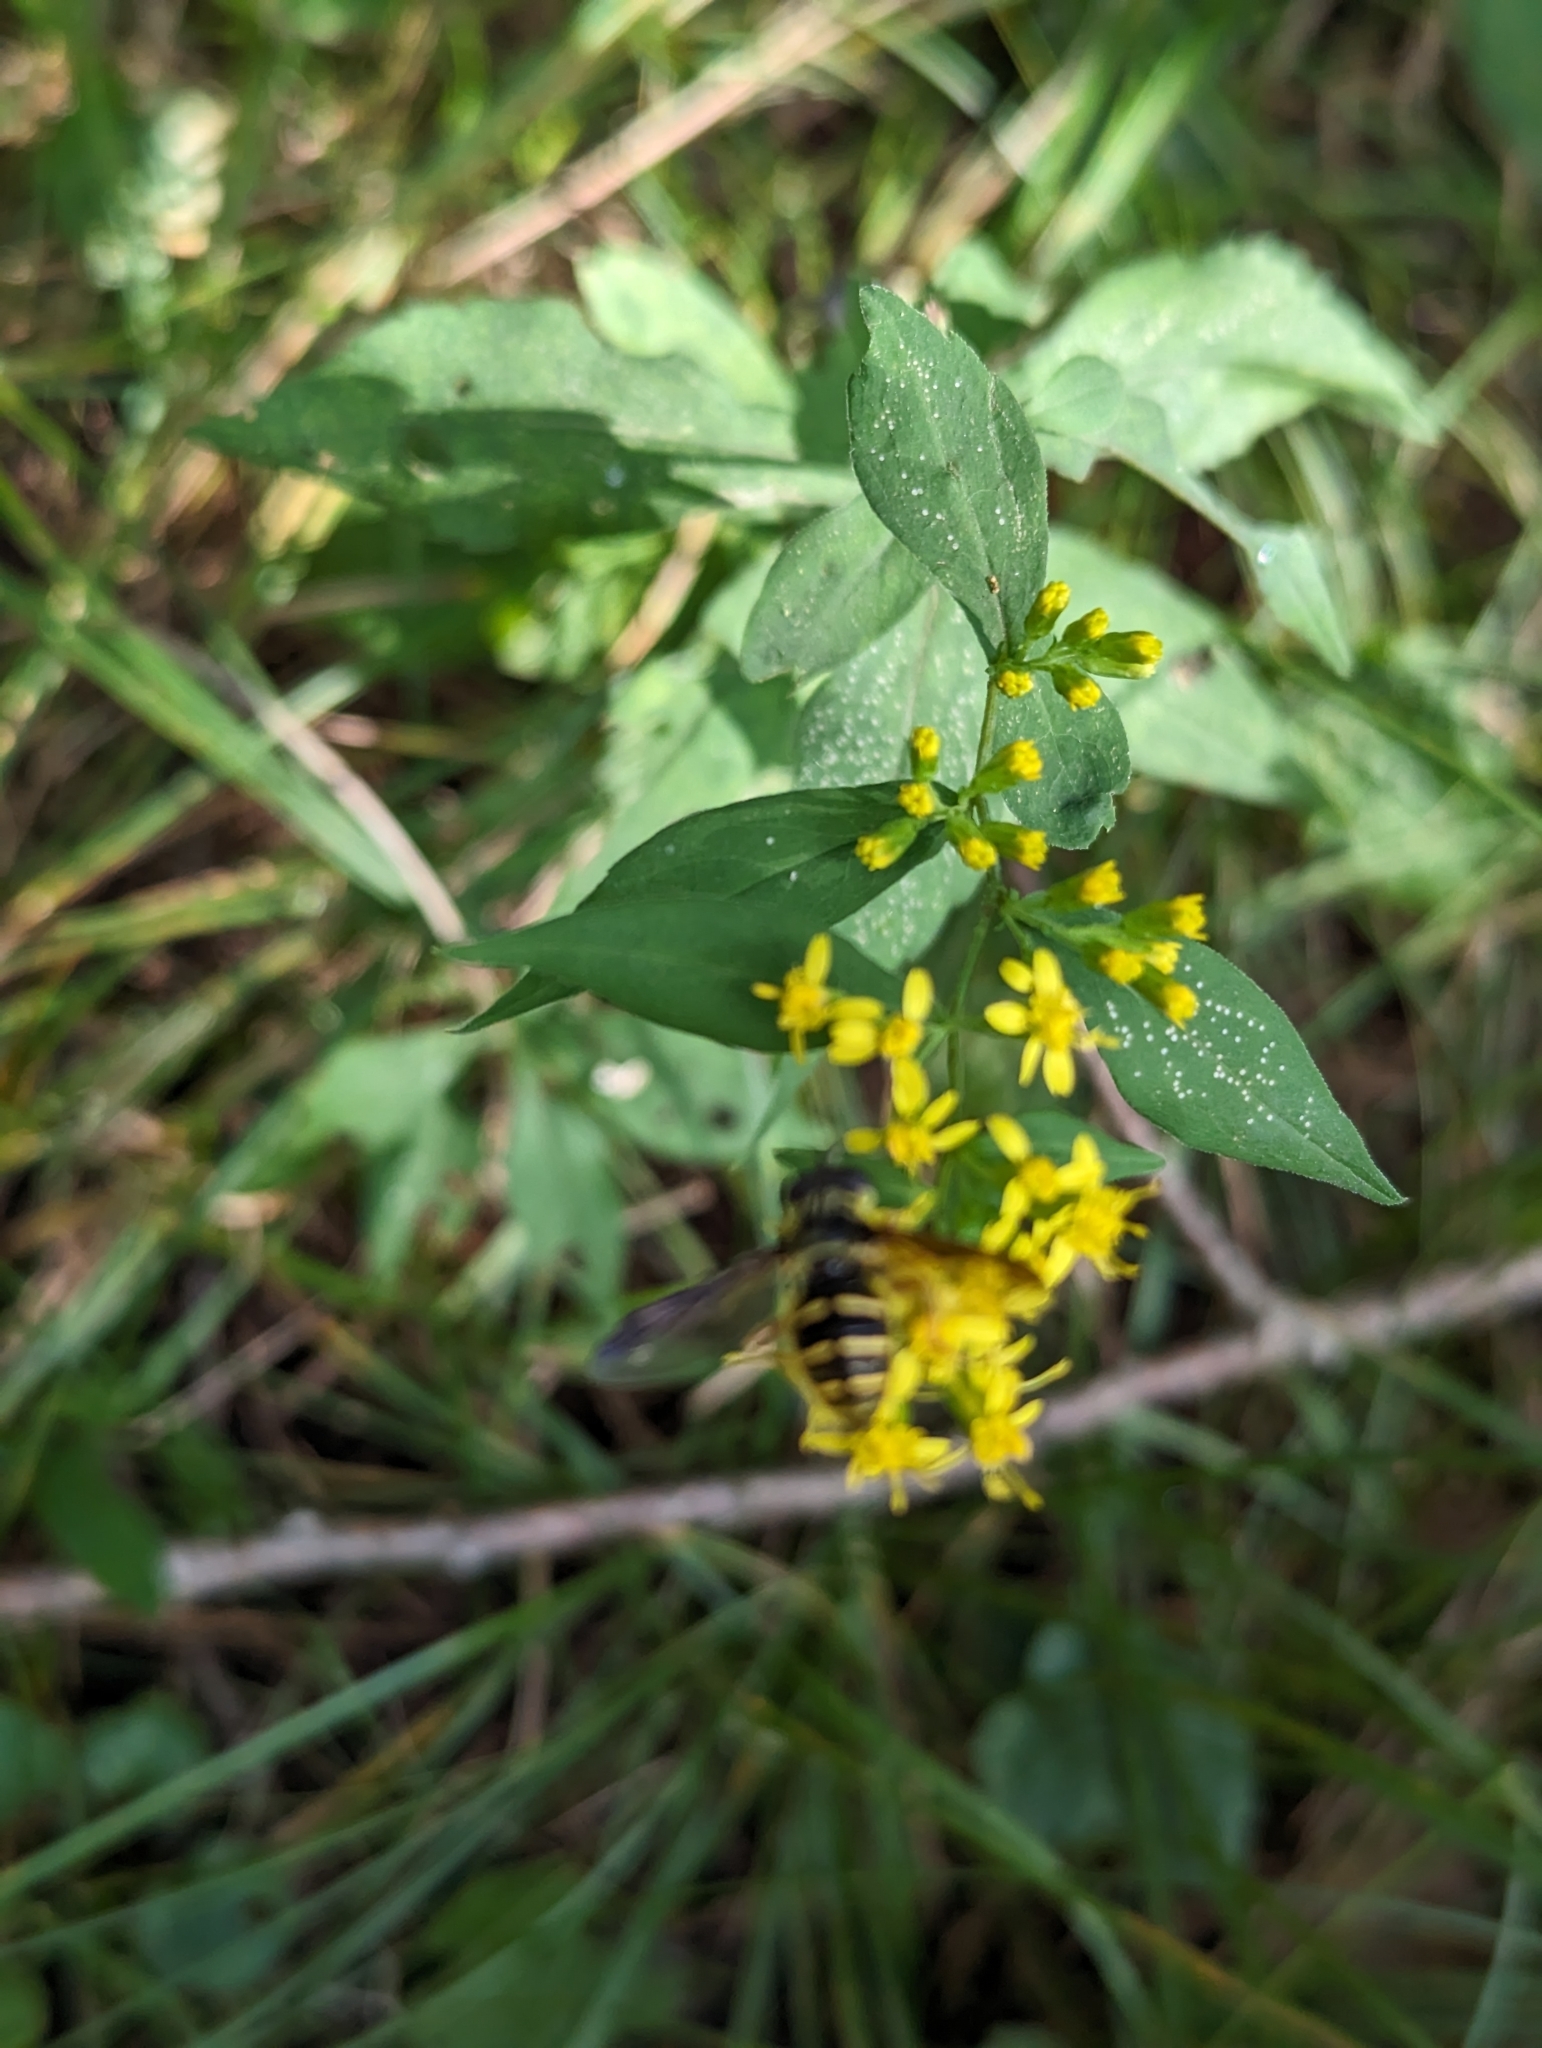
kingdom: Animalia
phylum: Arthropoda
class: Insecta
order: Diptera
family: Syrphidae
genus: Sericomyia
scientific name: Sericomyia chrysotoxoides
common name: Oblique-banded pond fly
